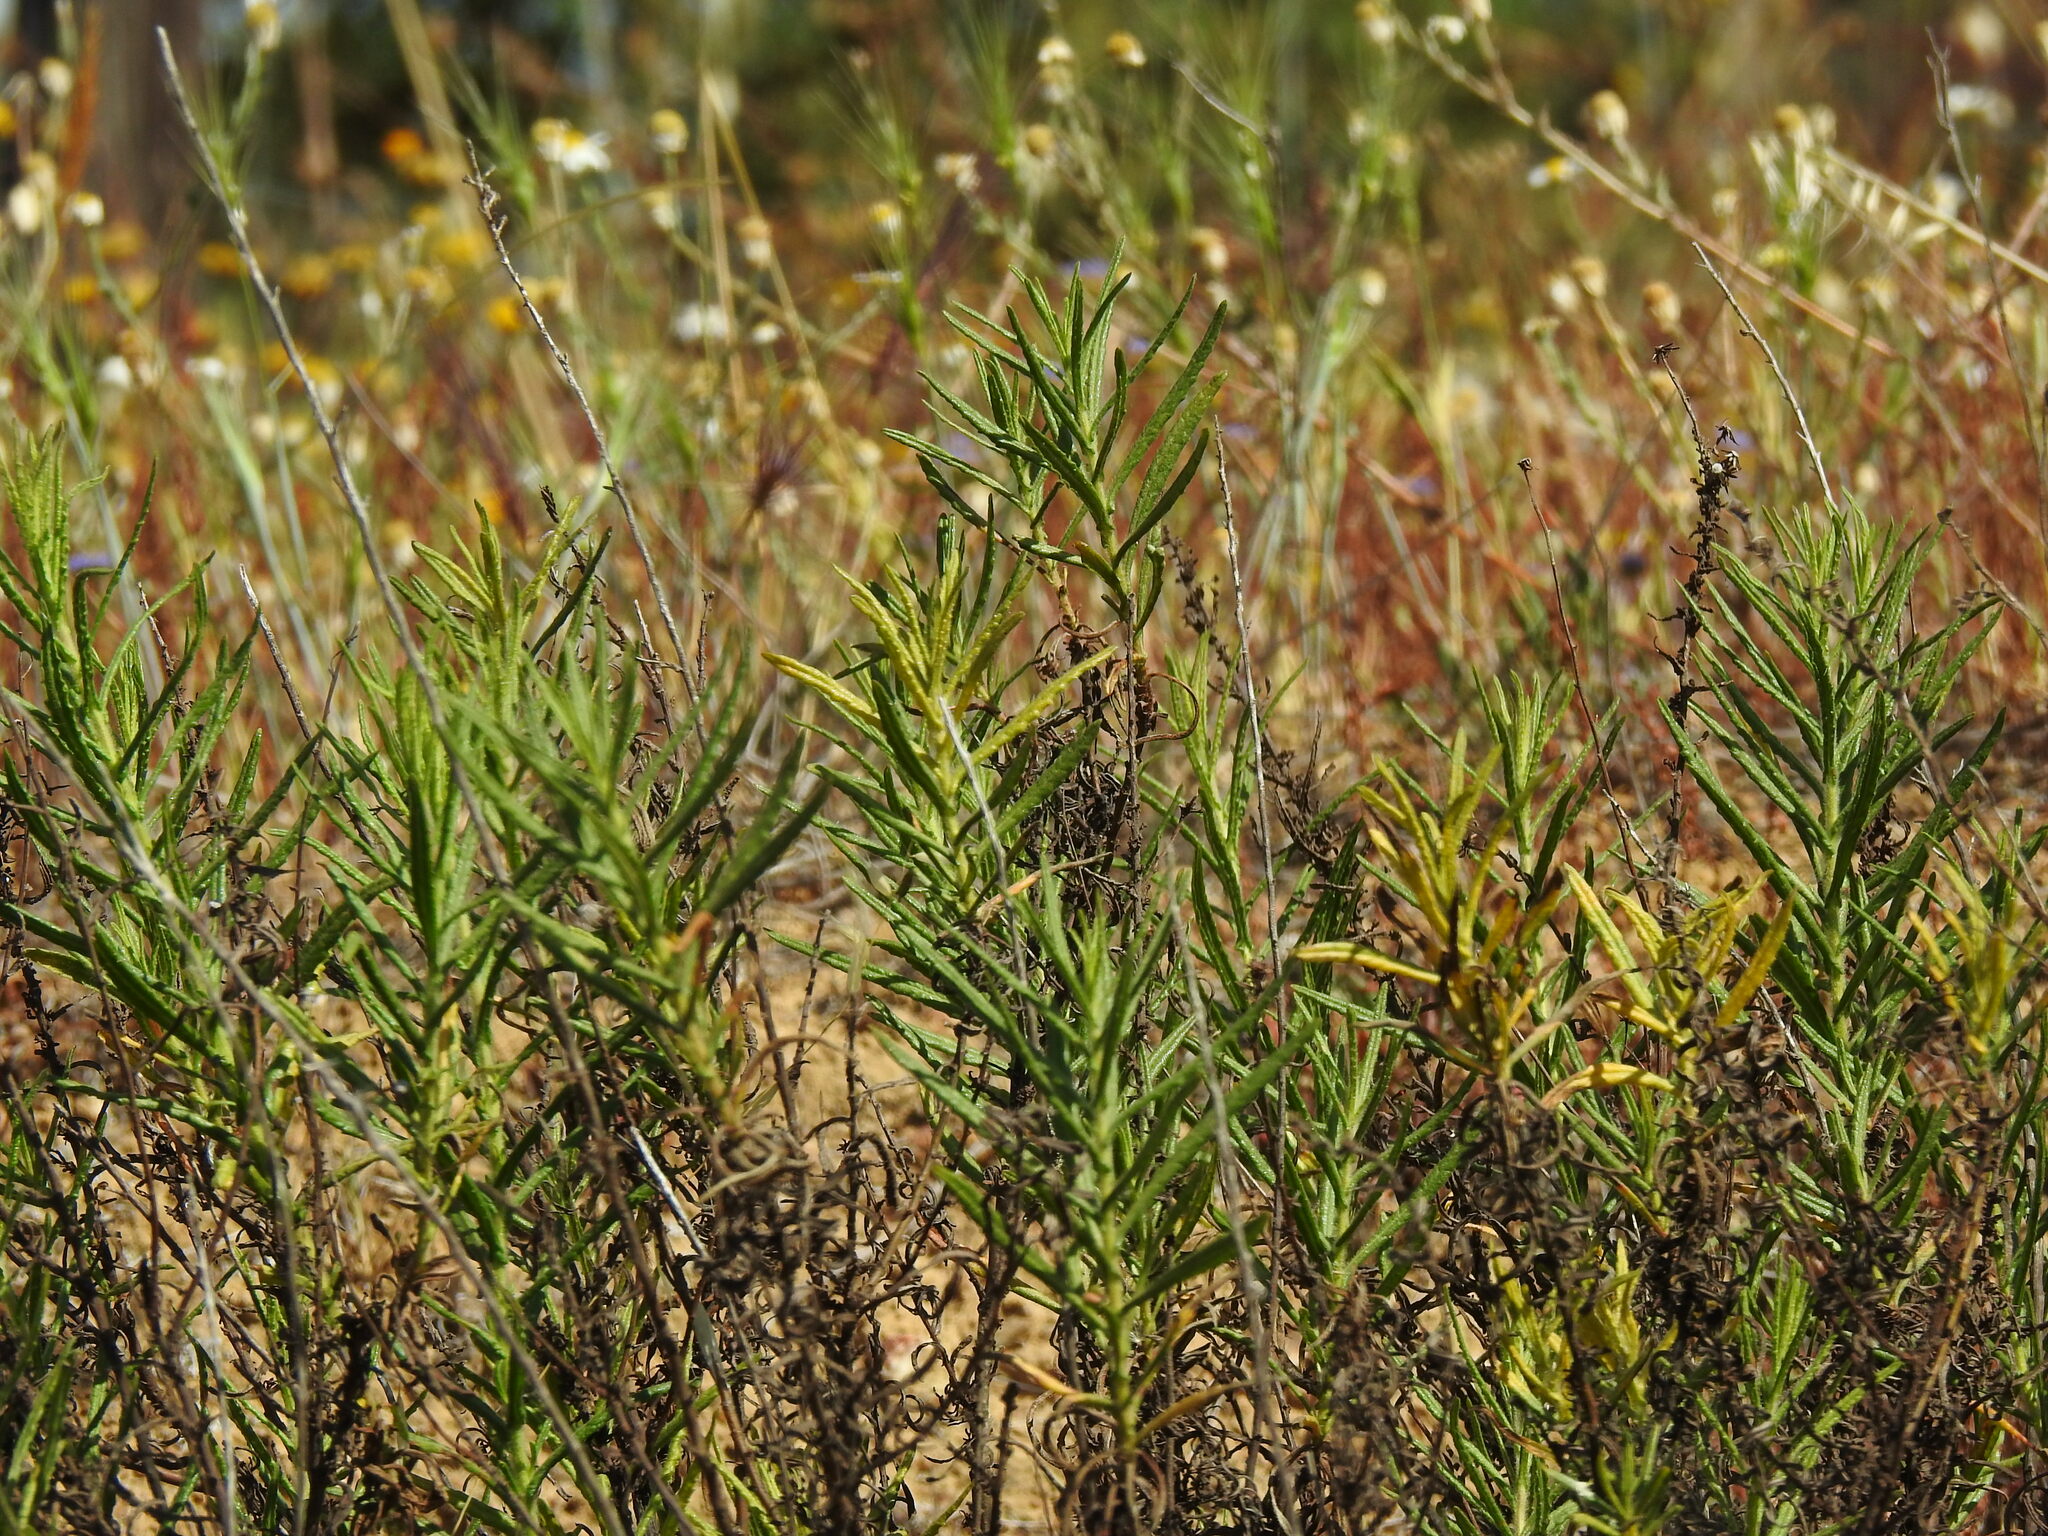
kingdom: Plantae
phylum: Tracheophyta
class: Magnoliopsida
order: Asterales
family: Asteraceae
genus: Dittrichia
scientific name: Dittrichia viscosa
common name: Woody fleabane
